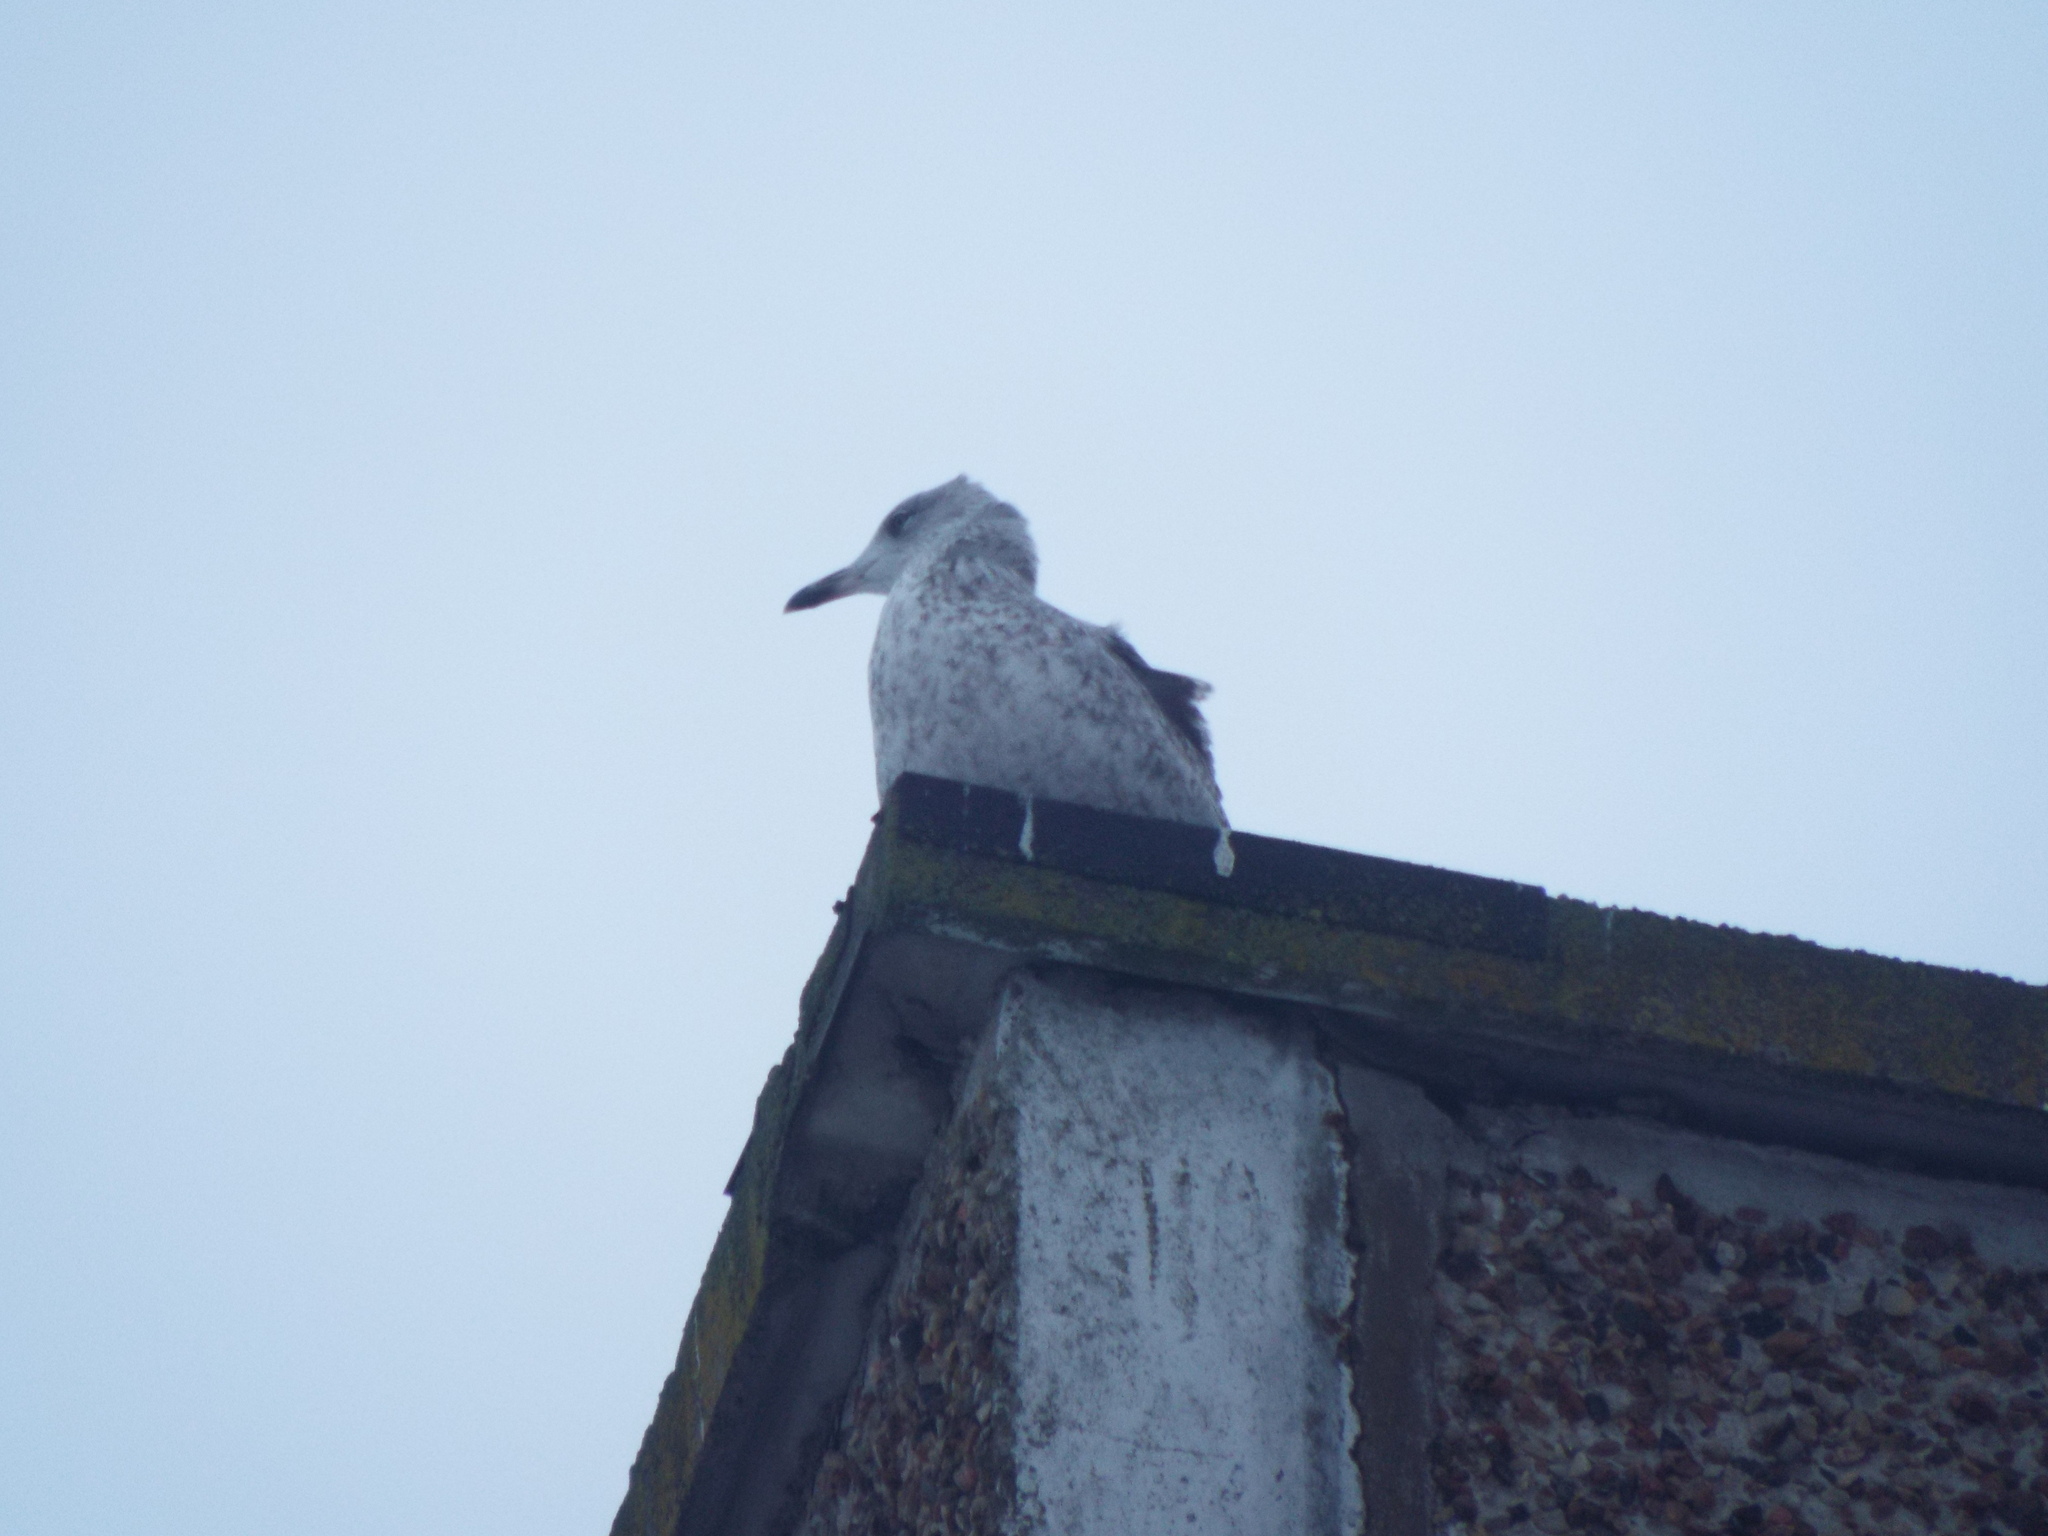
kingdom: Animalia
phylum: Chordata
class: Aves
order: Charadriiformes
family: Laridae
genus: Larus
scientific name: Larus argentatus
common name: Herring gull
